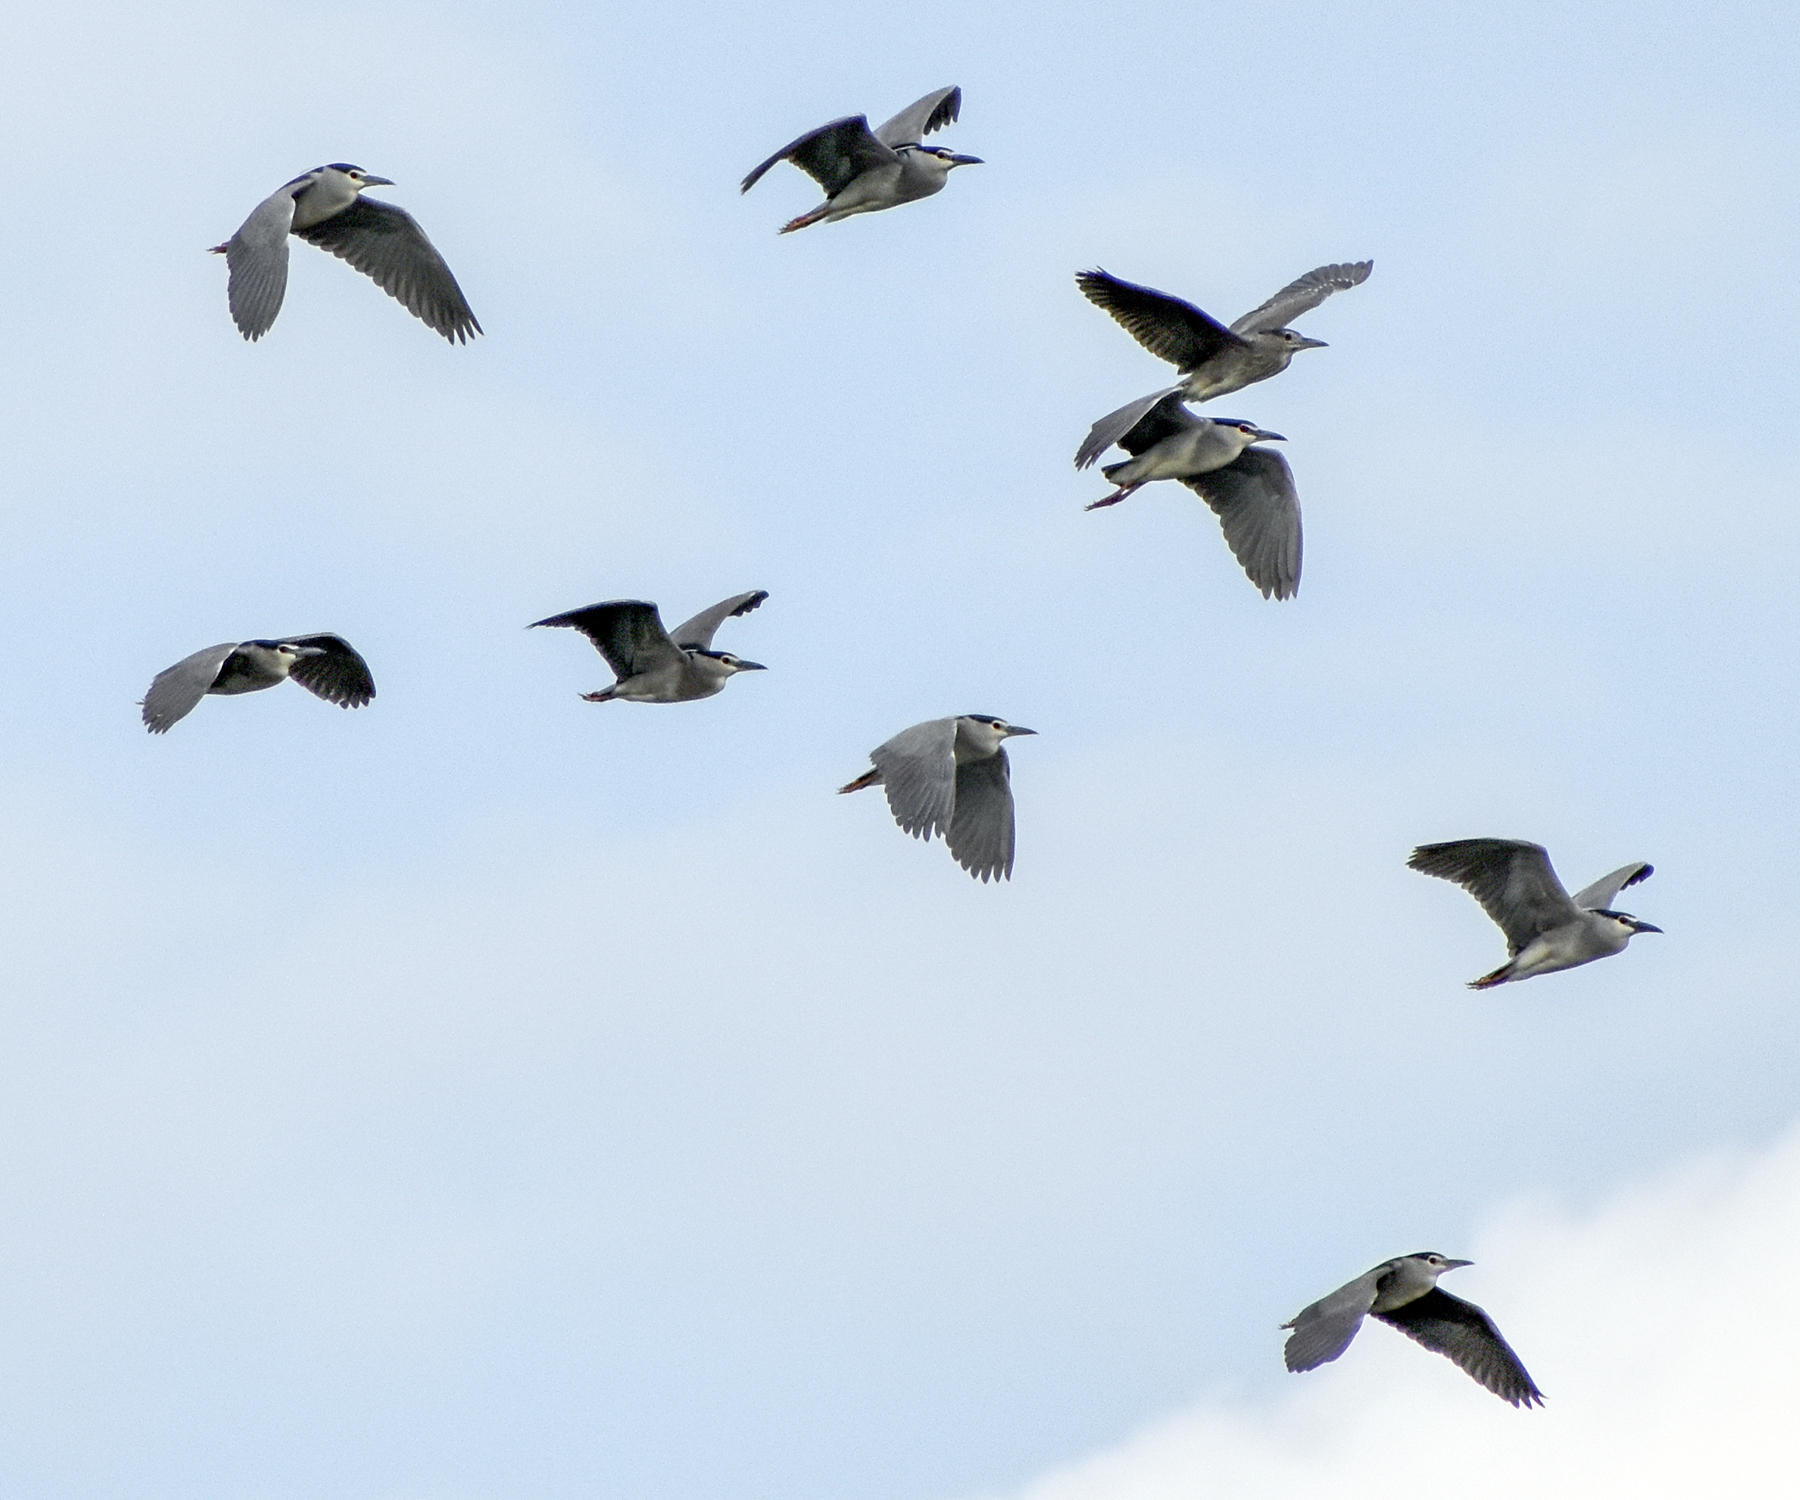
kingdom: Animalia
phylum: Chordata
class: Aves
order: Pelecaniformes
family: Ardeidae
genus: Nycticorax
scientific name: Nycticorax nycticorax
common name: Black-crowned night heron
